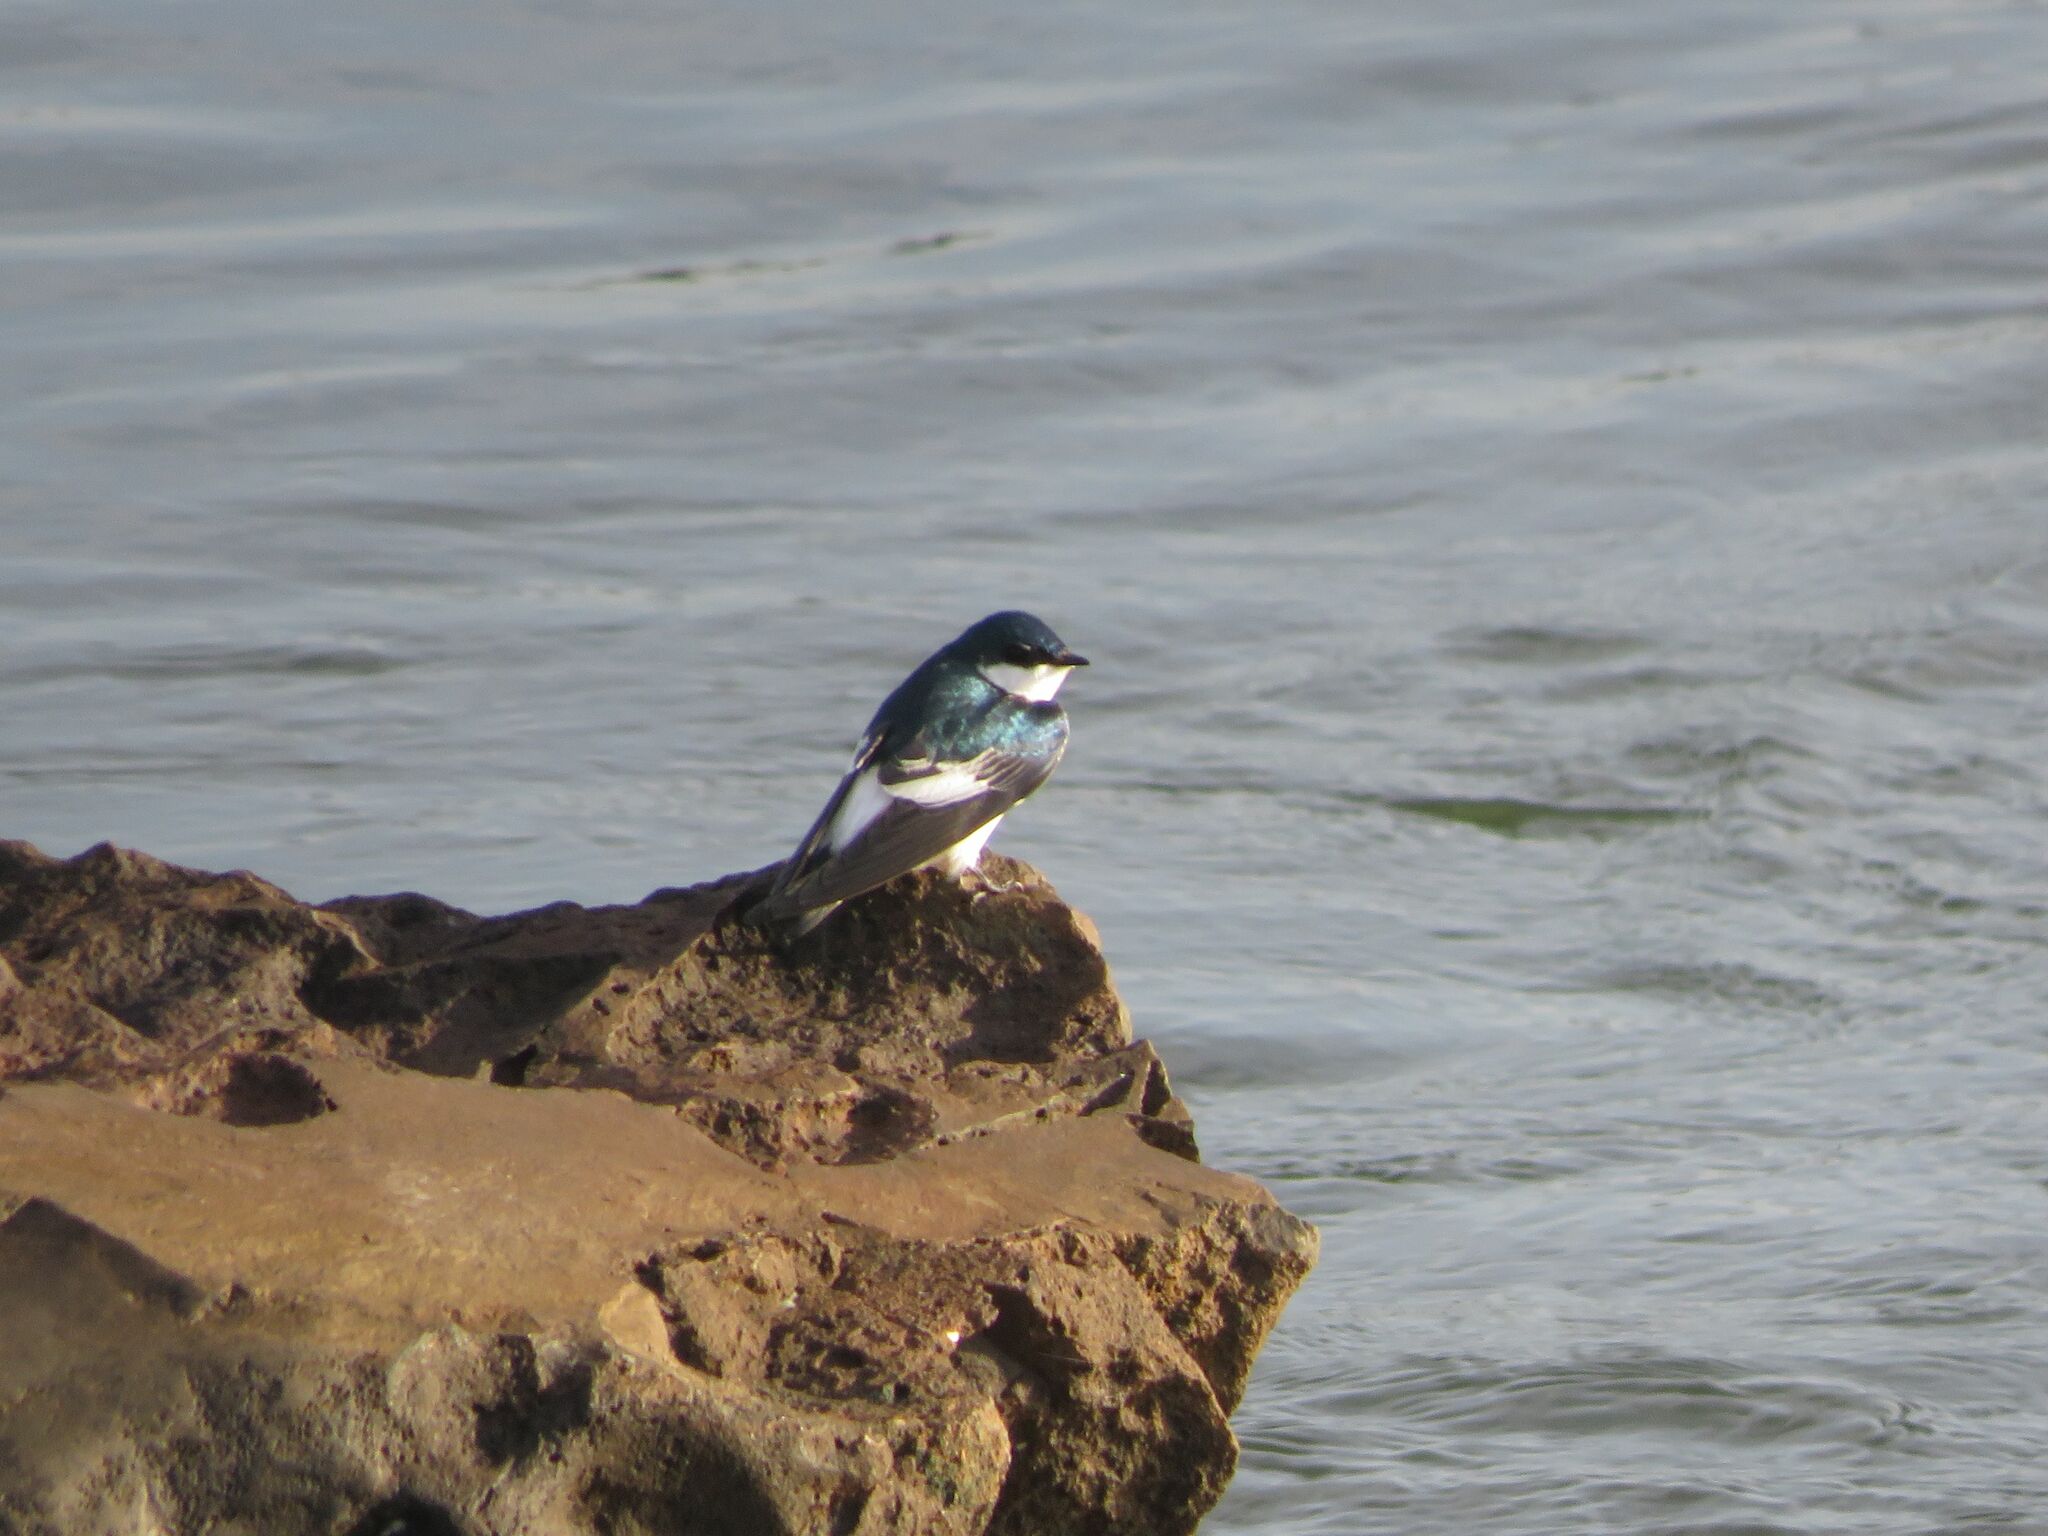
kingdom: Animalia
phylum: Chordata
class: Aves
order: Passeriformes
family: Hirundinidae
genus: Tachycineta
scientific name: Tachycineta albiventer
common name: White-winged swallow
